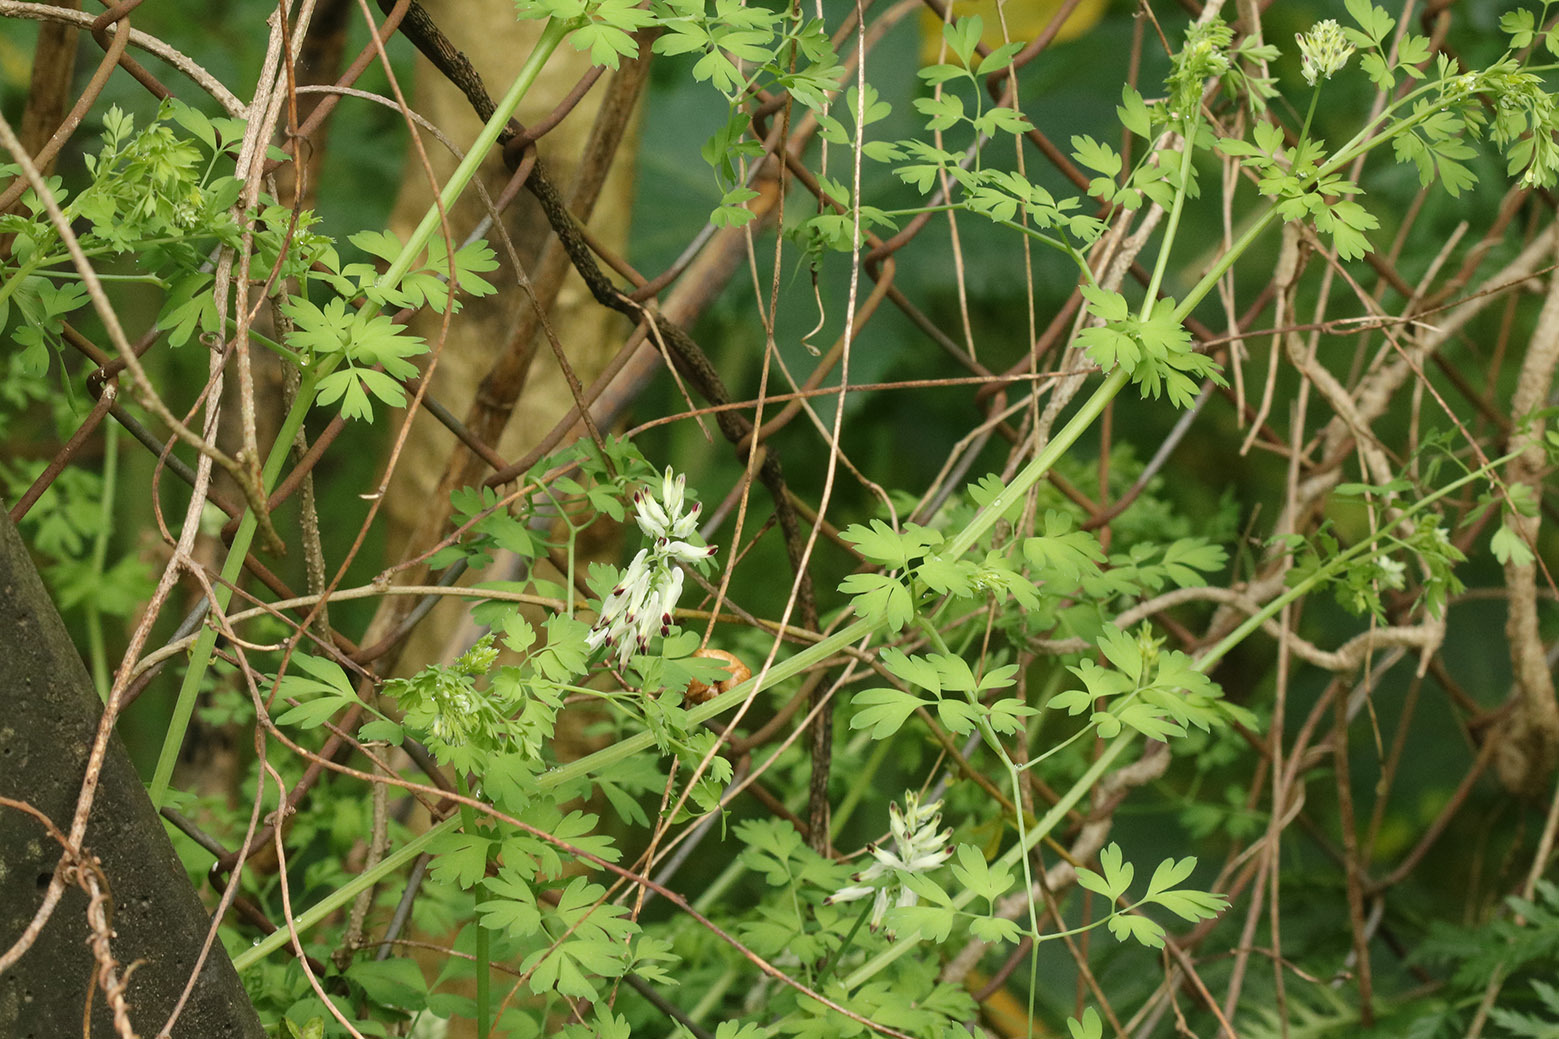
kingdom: Plantae
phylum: Tracheophyta
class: Magnoliopsida
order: Ranunculales
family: Papaveraceae
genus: Fumaria
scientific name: Fumaria capreolata
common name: White ramping-fumitory
